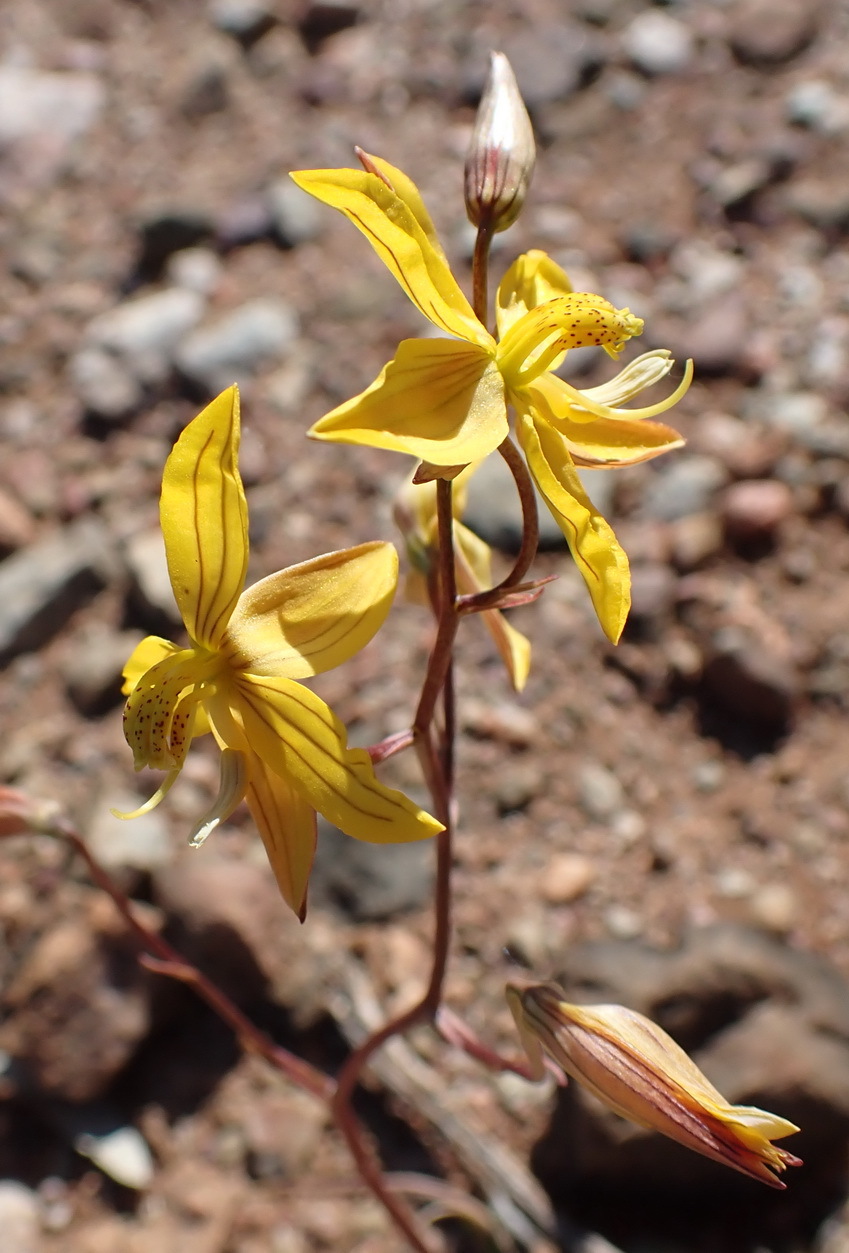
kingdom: Plantae
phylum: Tracheophyta
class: Liliopsida
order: Asparagales
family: Tecophilaeaceae
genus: Cyanella
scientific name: Cyanella lutea
